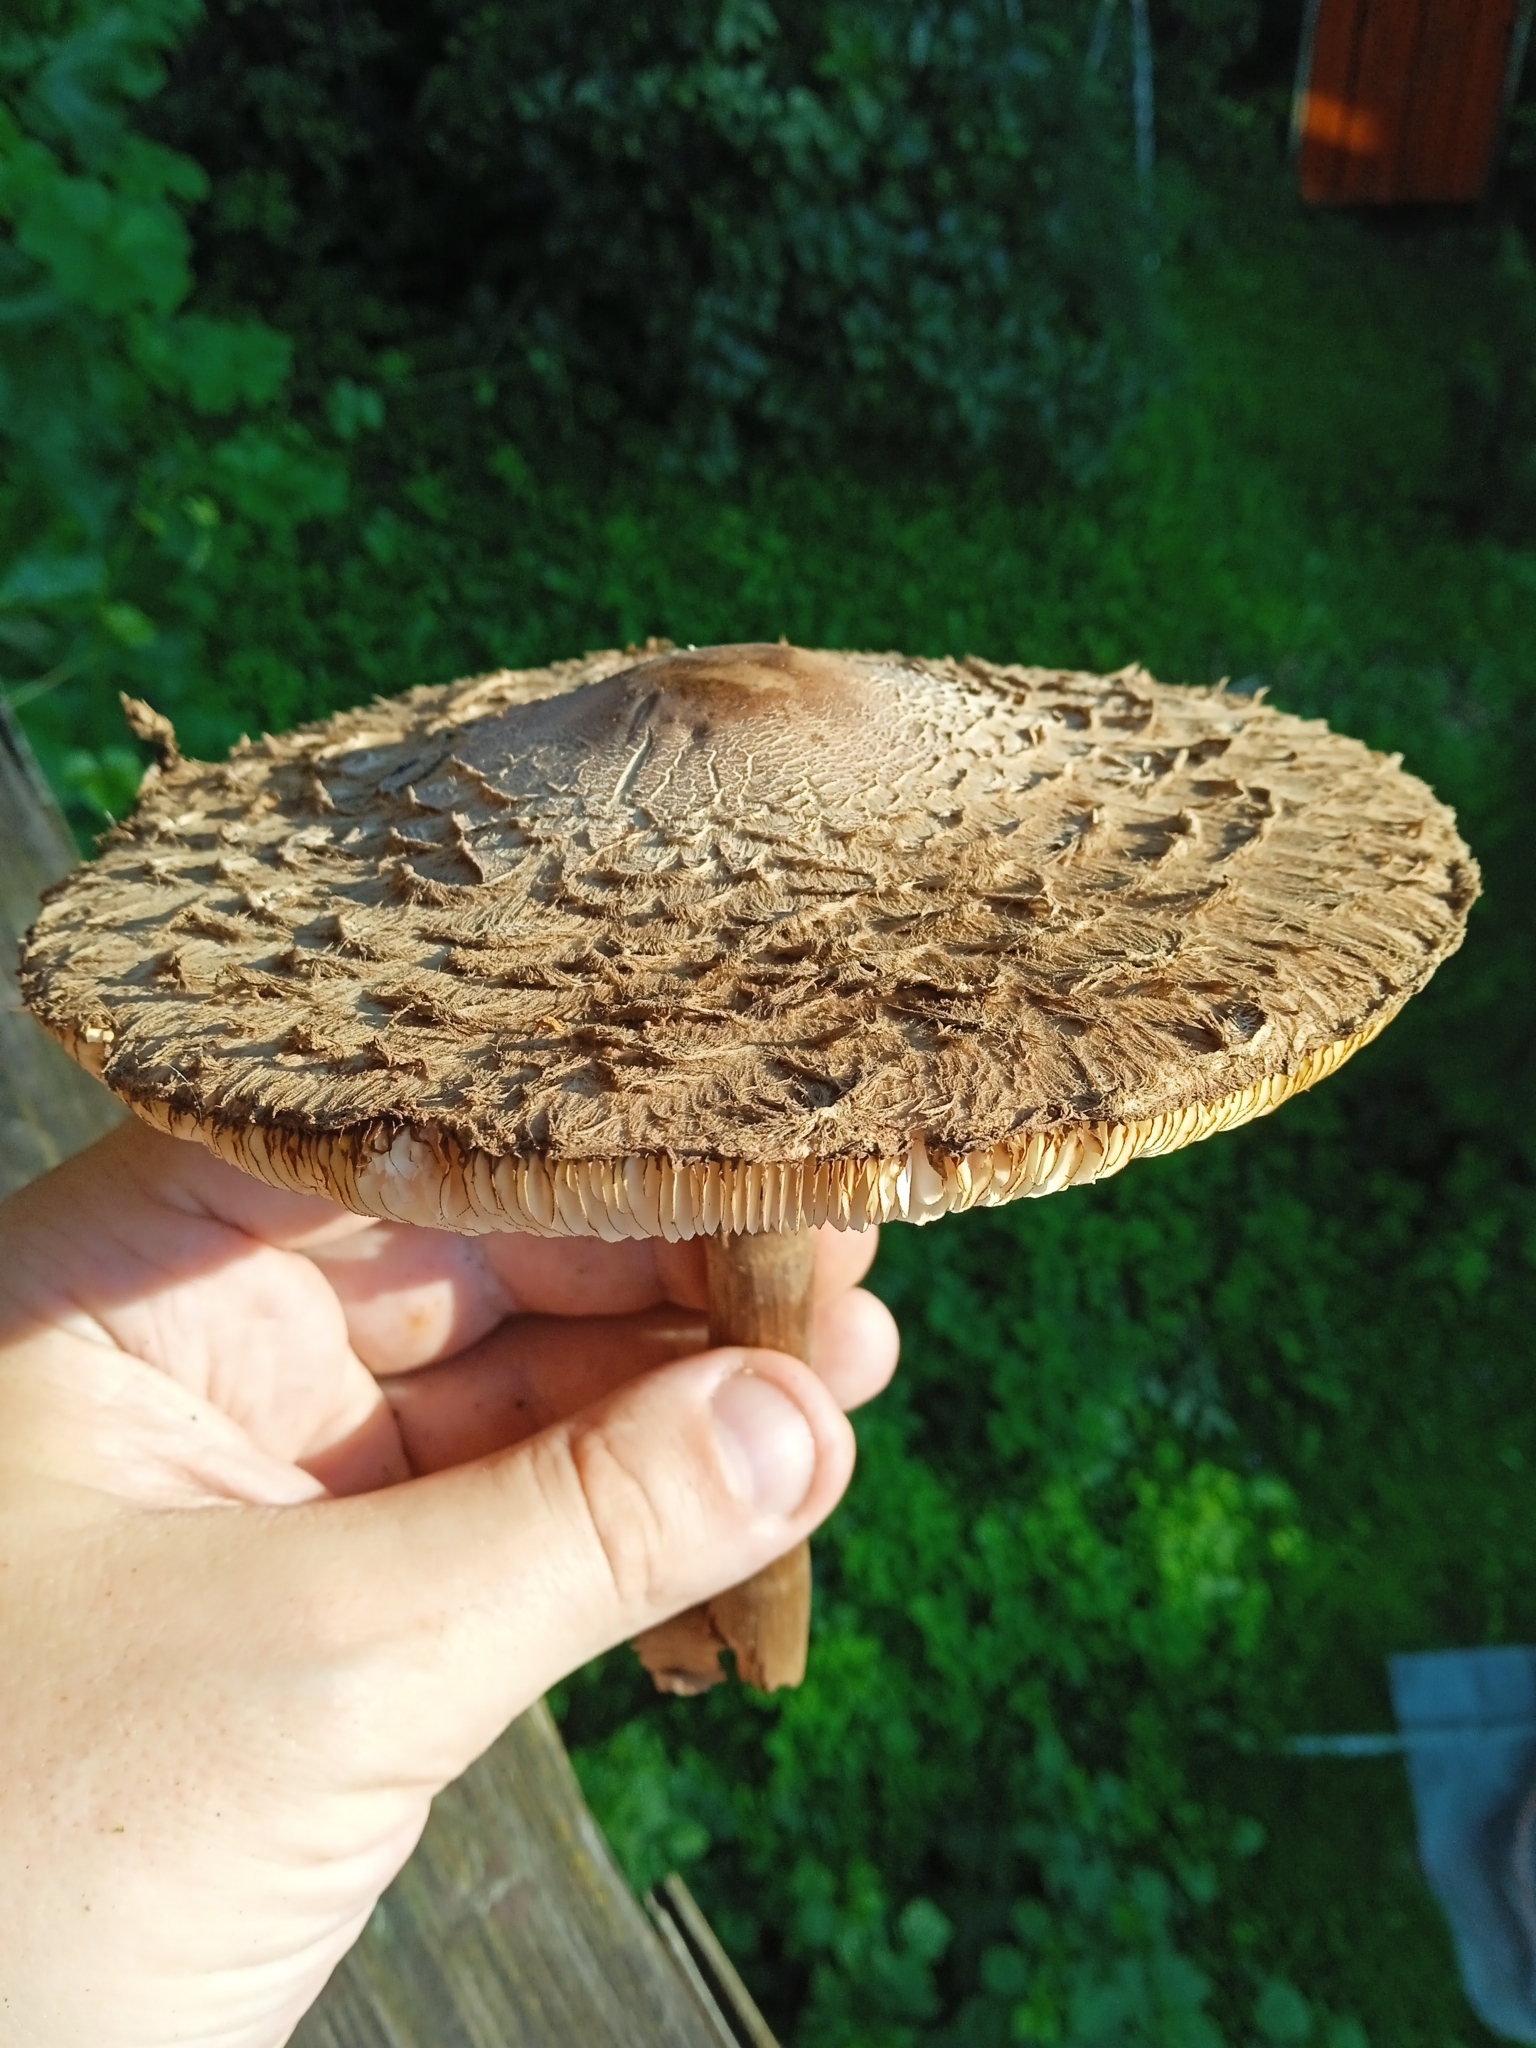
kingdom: Fungi
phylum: Basidiomycota
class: Agaricomycetes
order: Agaricales
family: Agaricaceae
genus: Macrolepiota
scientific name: Macrolepiota procera
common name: Parasol
